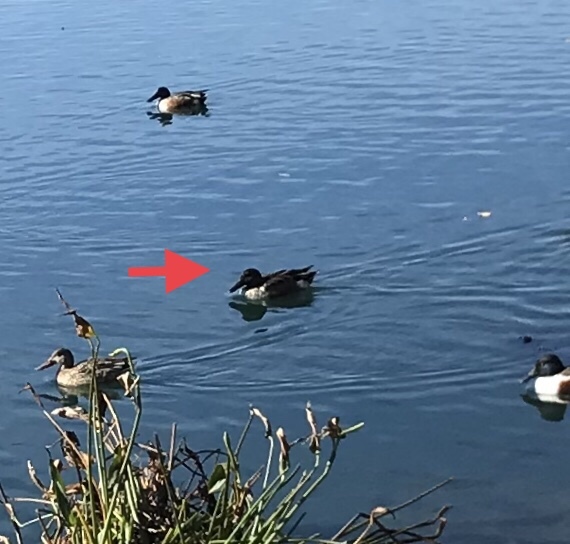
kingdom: Animalia
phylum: Chordata
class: Aves
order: Anseriformes
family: Anatidae
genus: Spatula
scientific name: Spatula clypeata
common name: Northern shoveler
